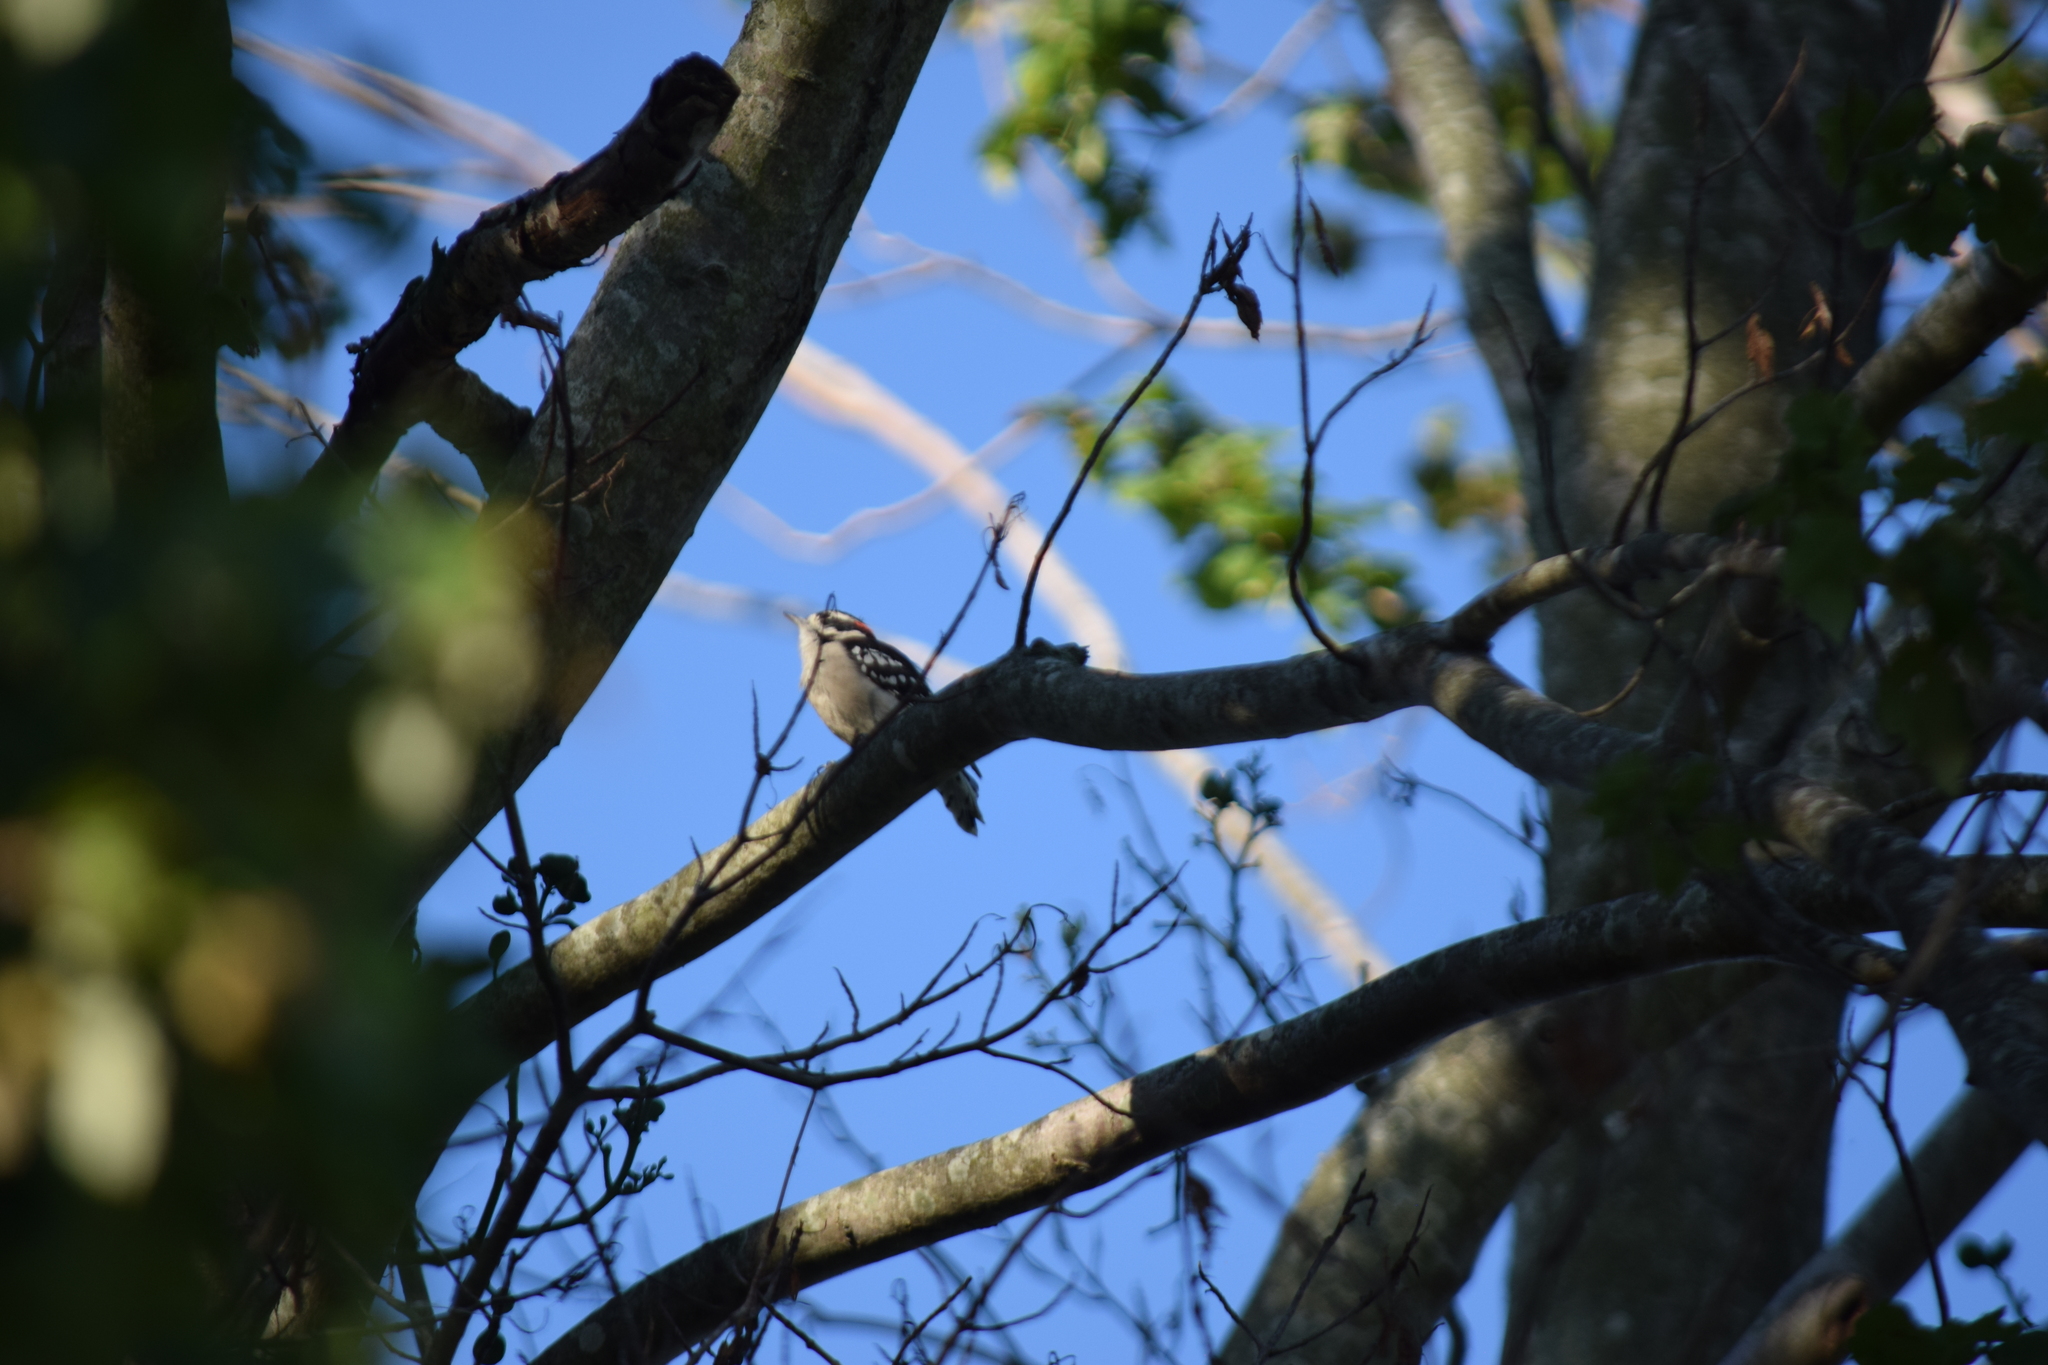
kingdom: Animalia
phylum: Chordata
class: Aves
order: Piciformes
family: Picidae
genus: Dryobates
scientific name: Dryobates pubescens
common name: Downy woodpecker
